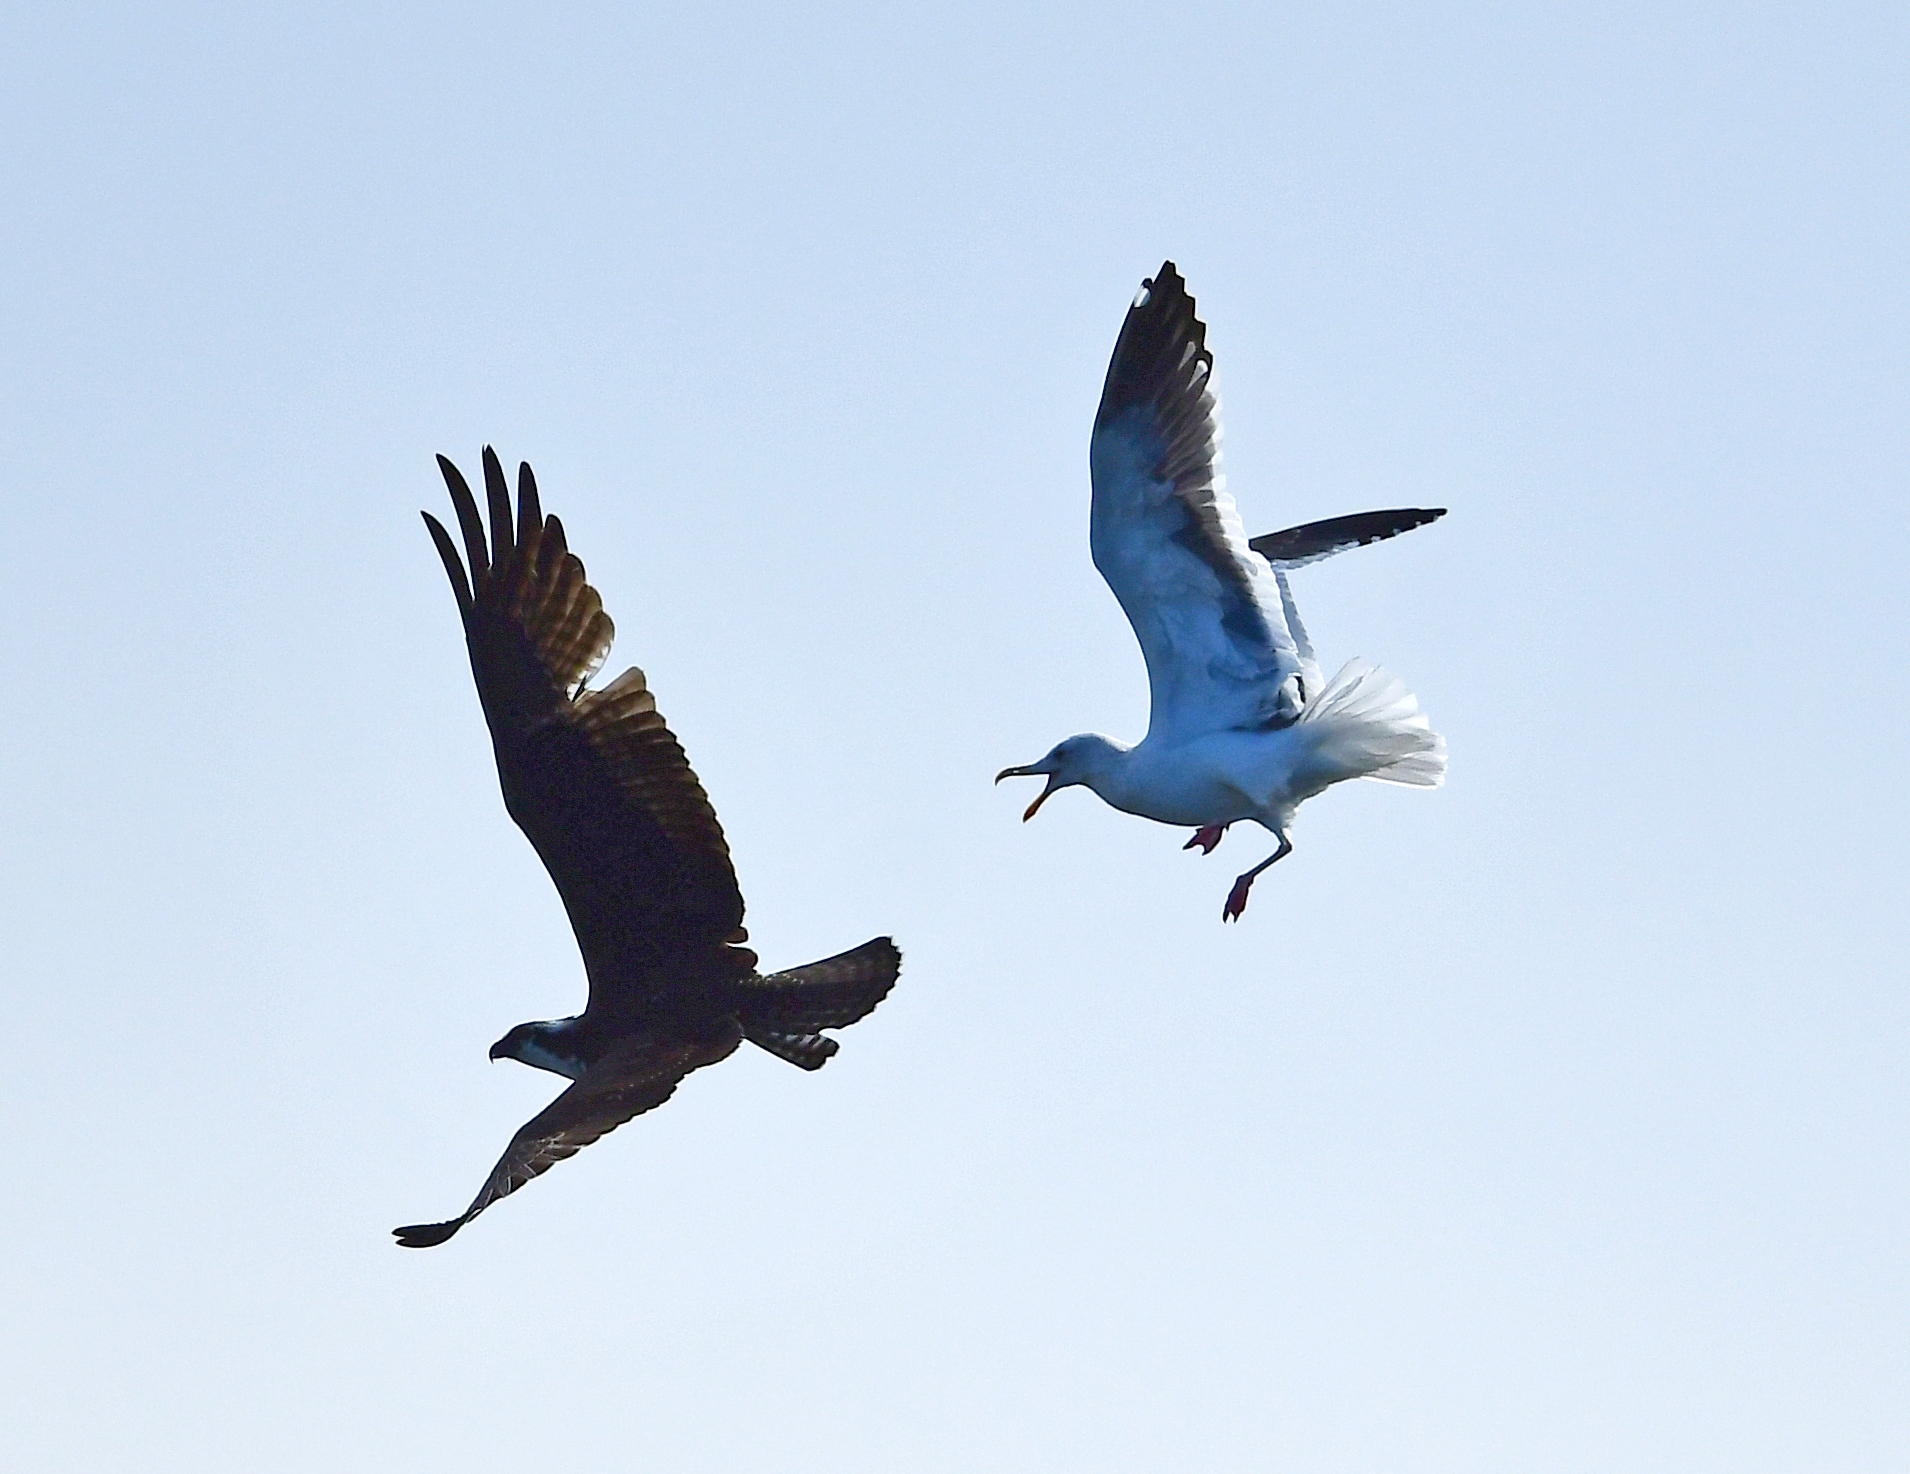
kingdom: Animalia
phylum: Chordata
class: Aves
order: Accipitriformes
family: Pandionidae
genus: Pandion
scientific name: Pandion haliaetus
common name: Osprey
